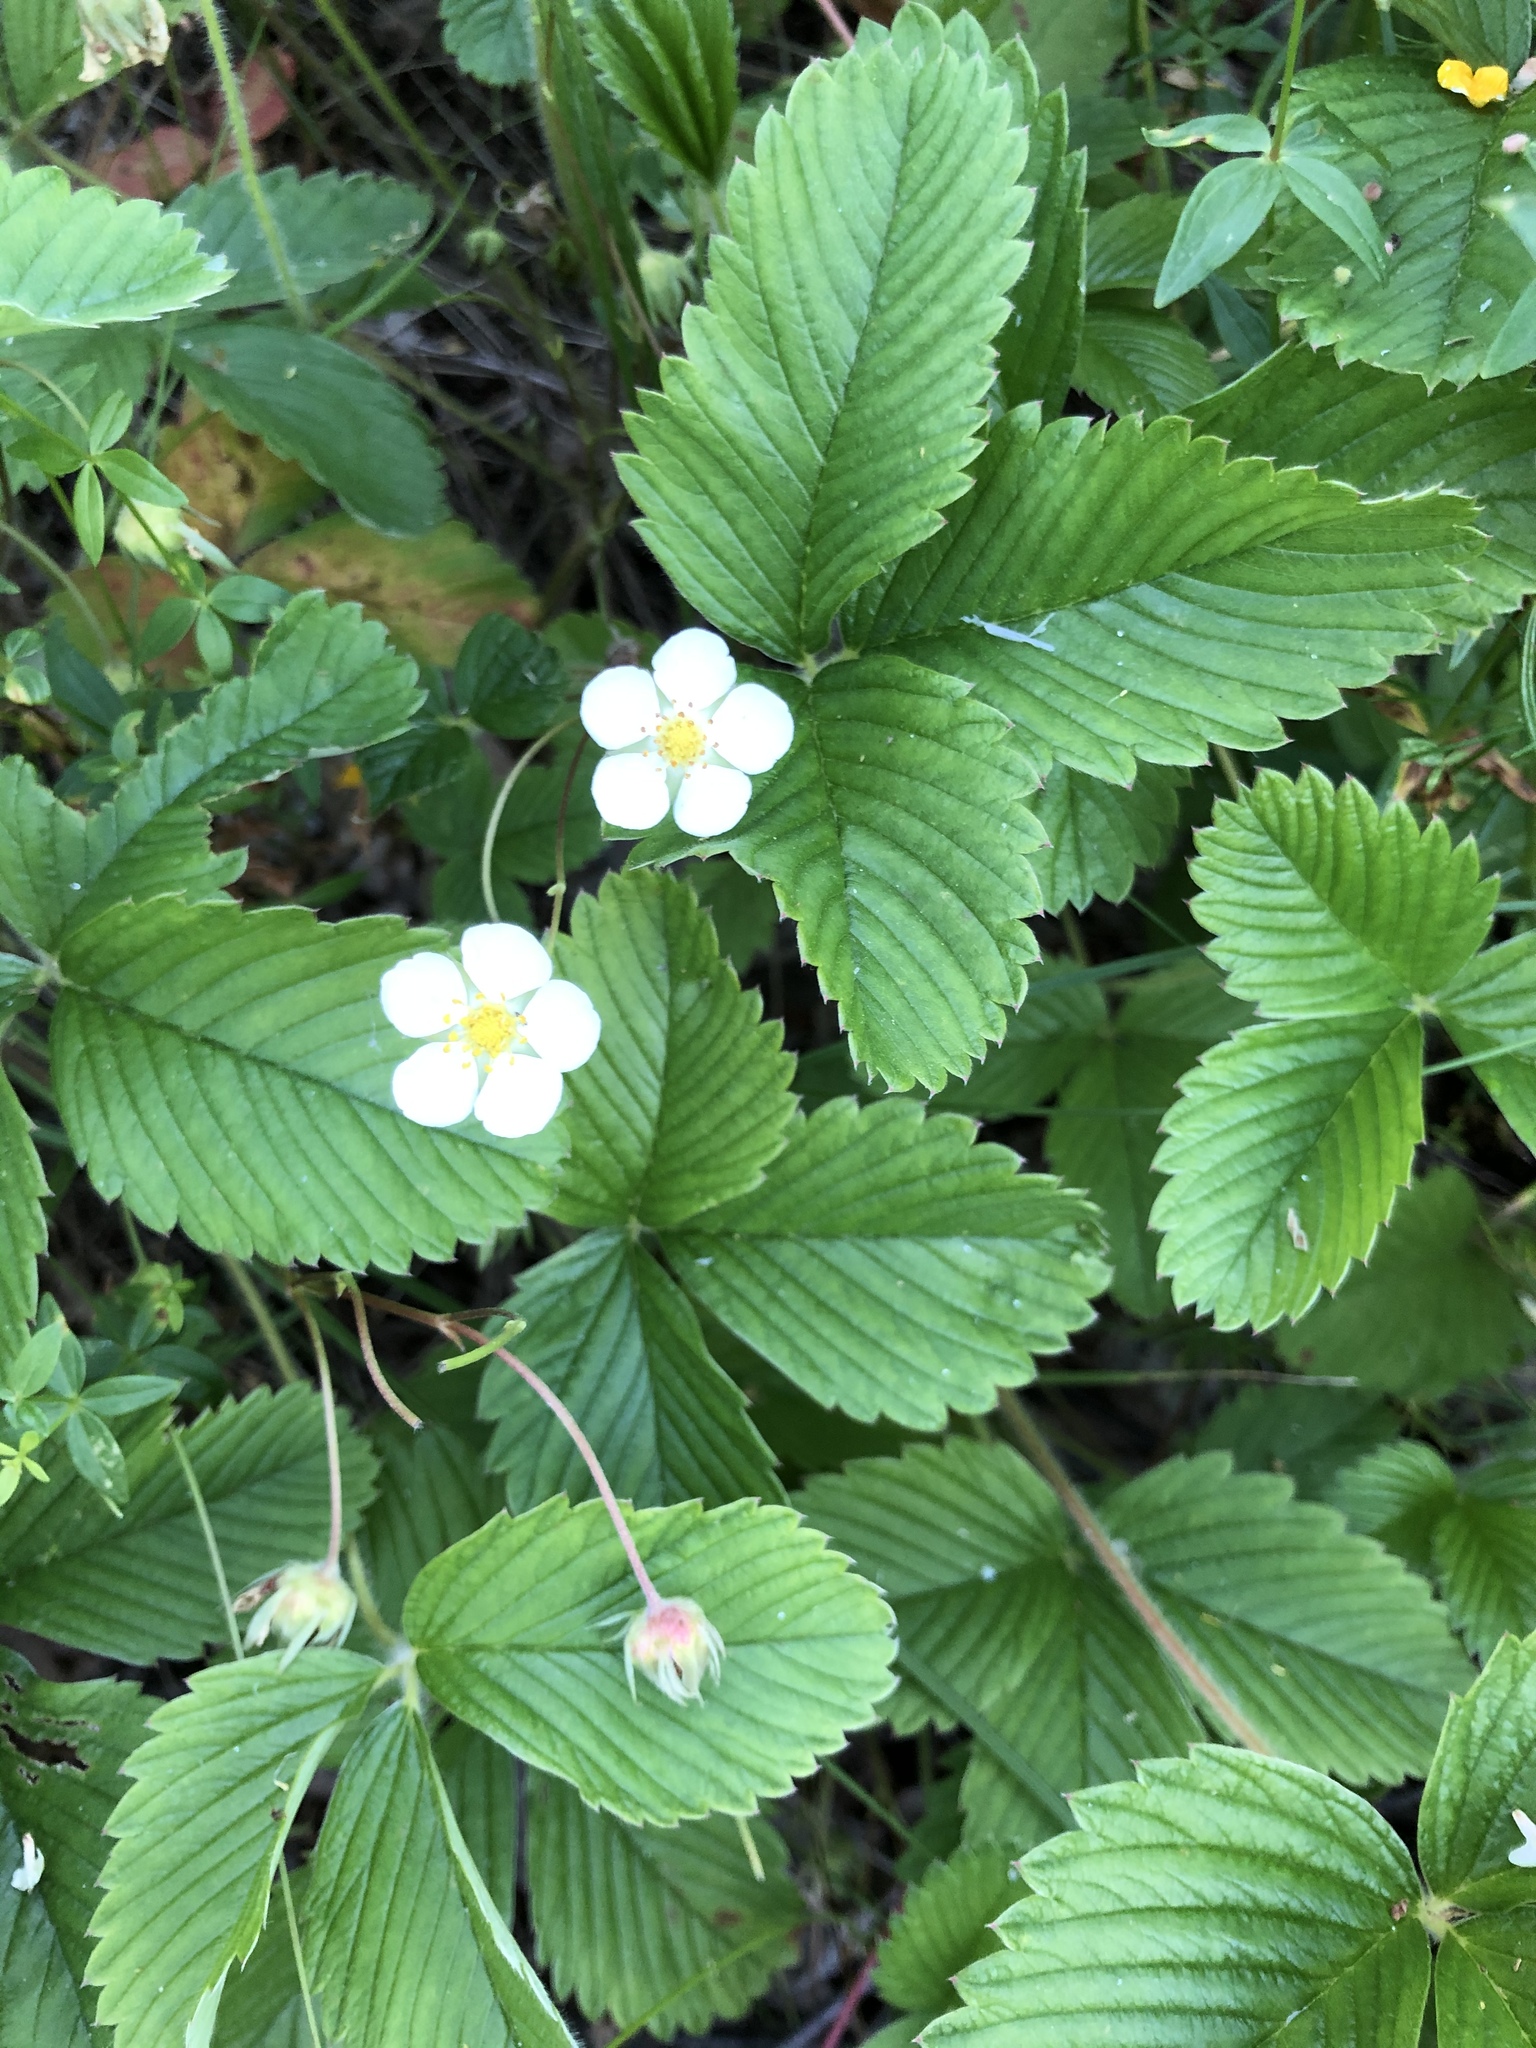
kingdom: Plantae
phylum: Tracheophyta
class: Magnoliopsida
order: Rosales
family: Rosaceae
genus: Fragaria
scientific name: Fragaria viridis
